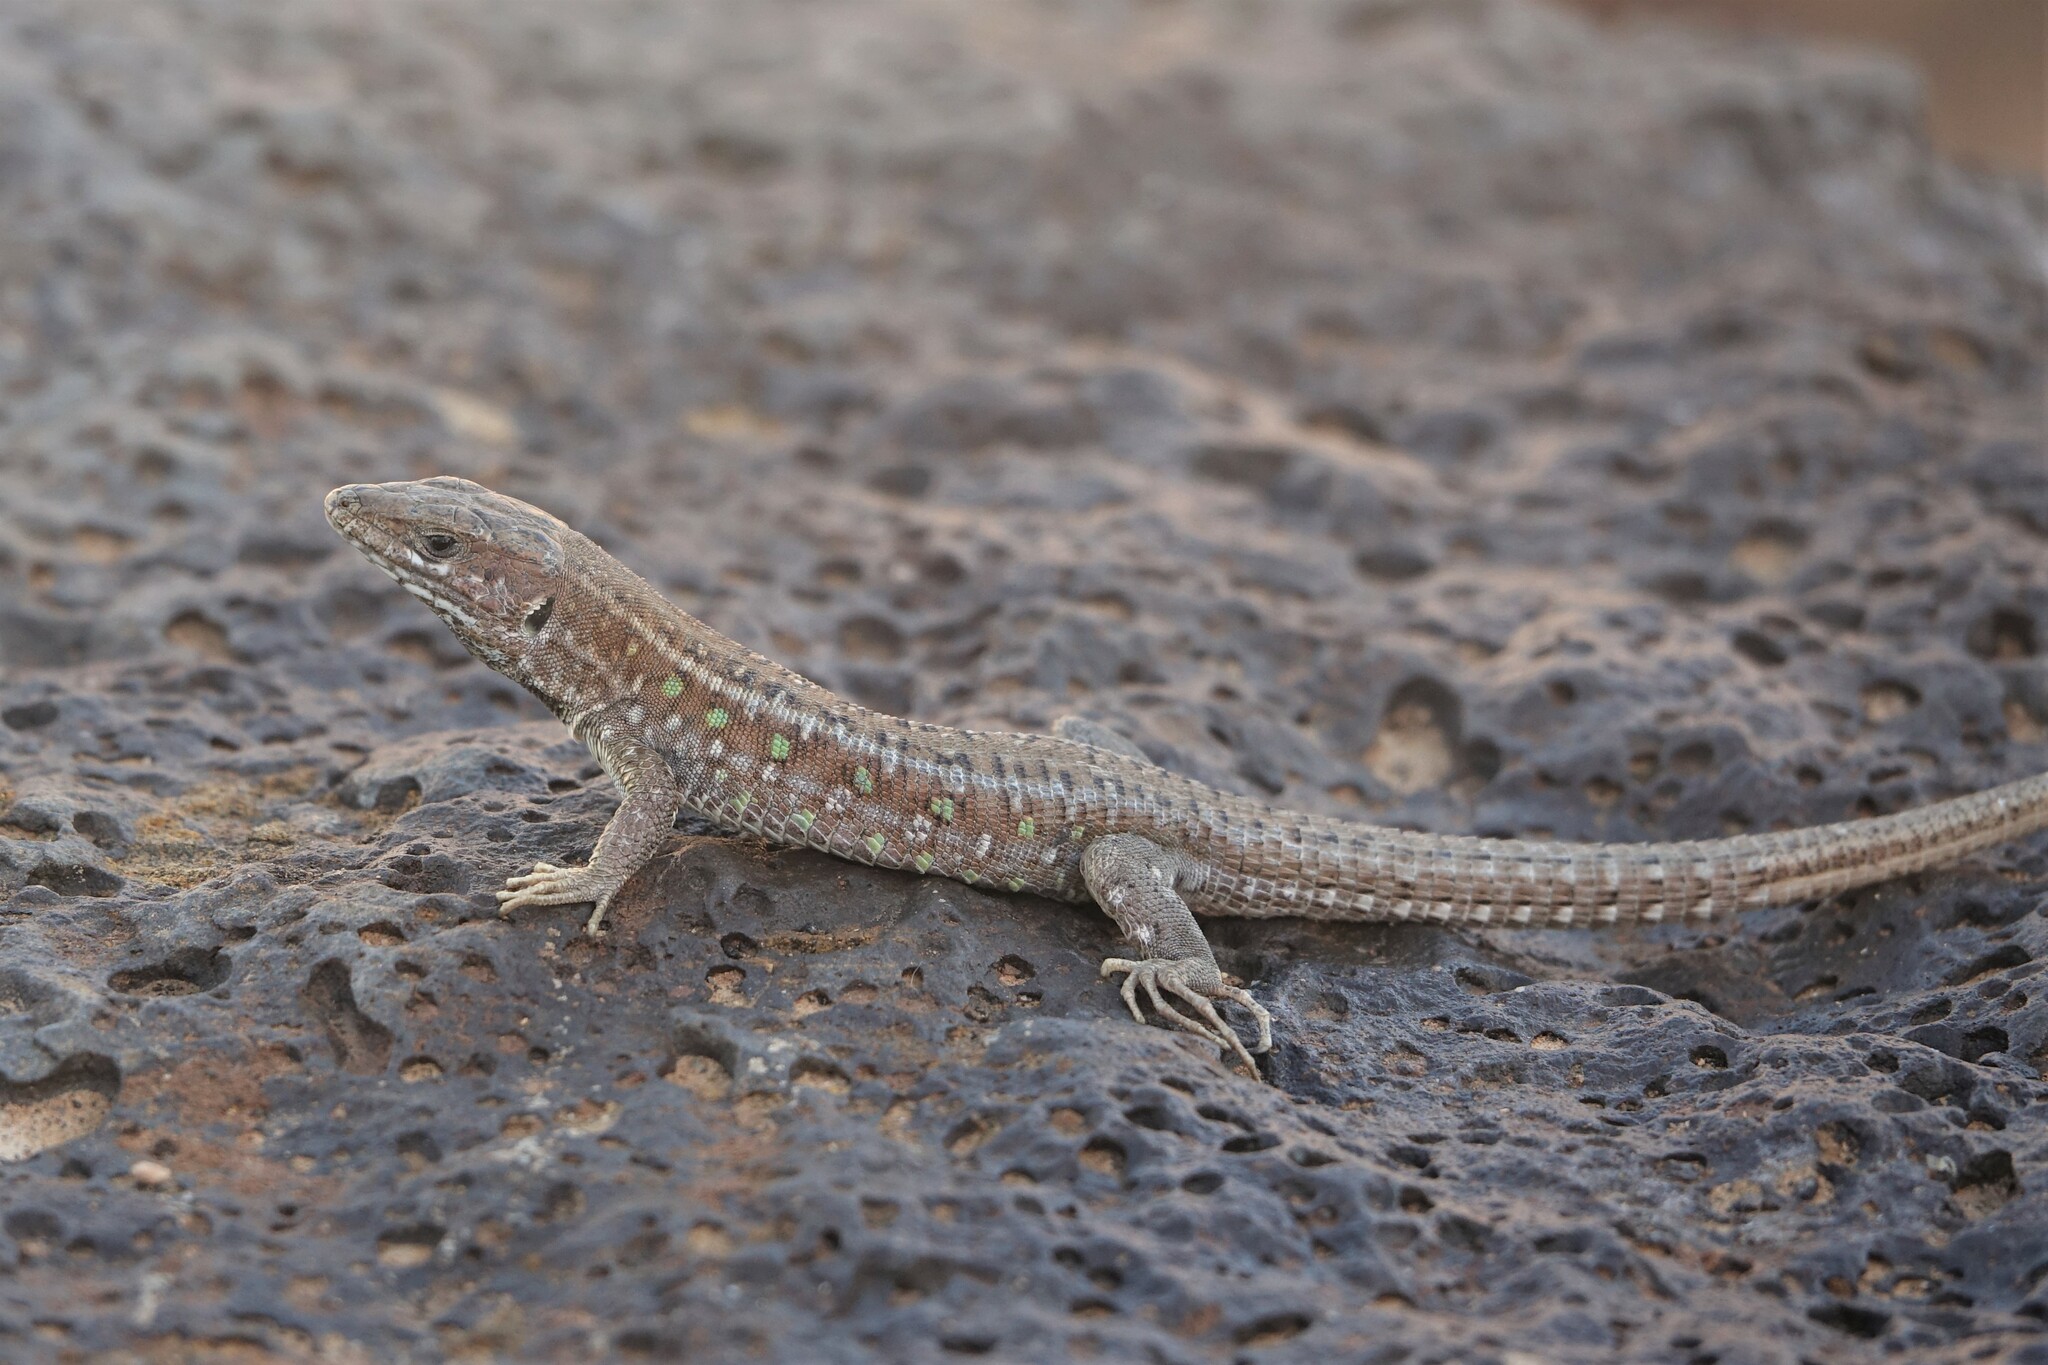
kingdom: Animalia
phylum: Chordata
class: Squamata
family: Lacertidae
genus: Gallotia
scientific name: Gallotia atlantica
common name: Atlantic lizard
